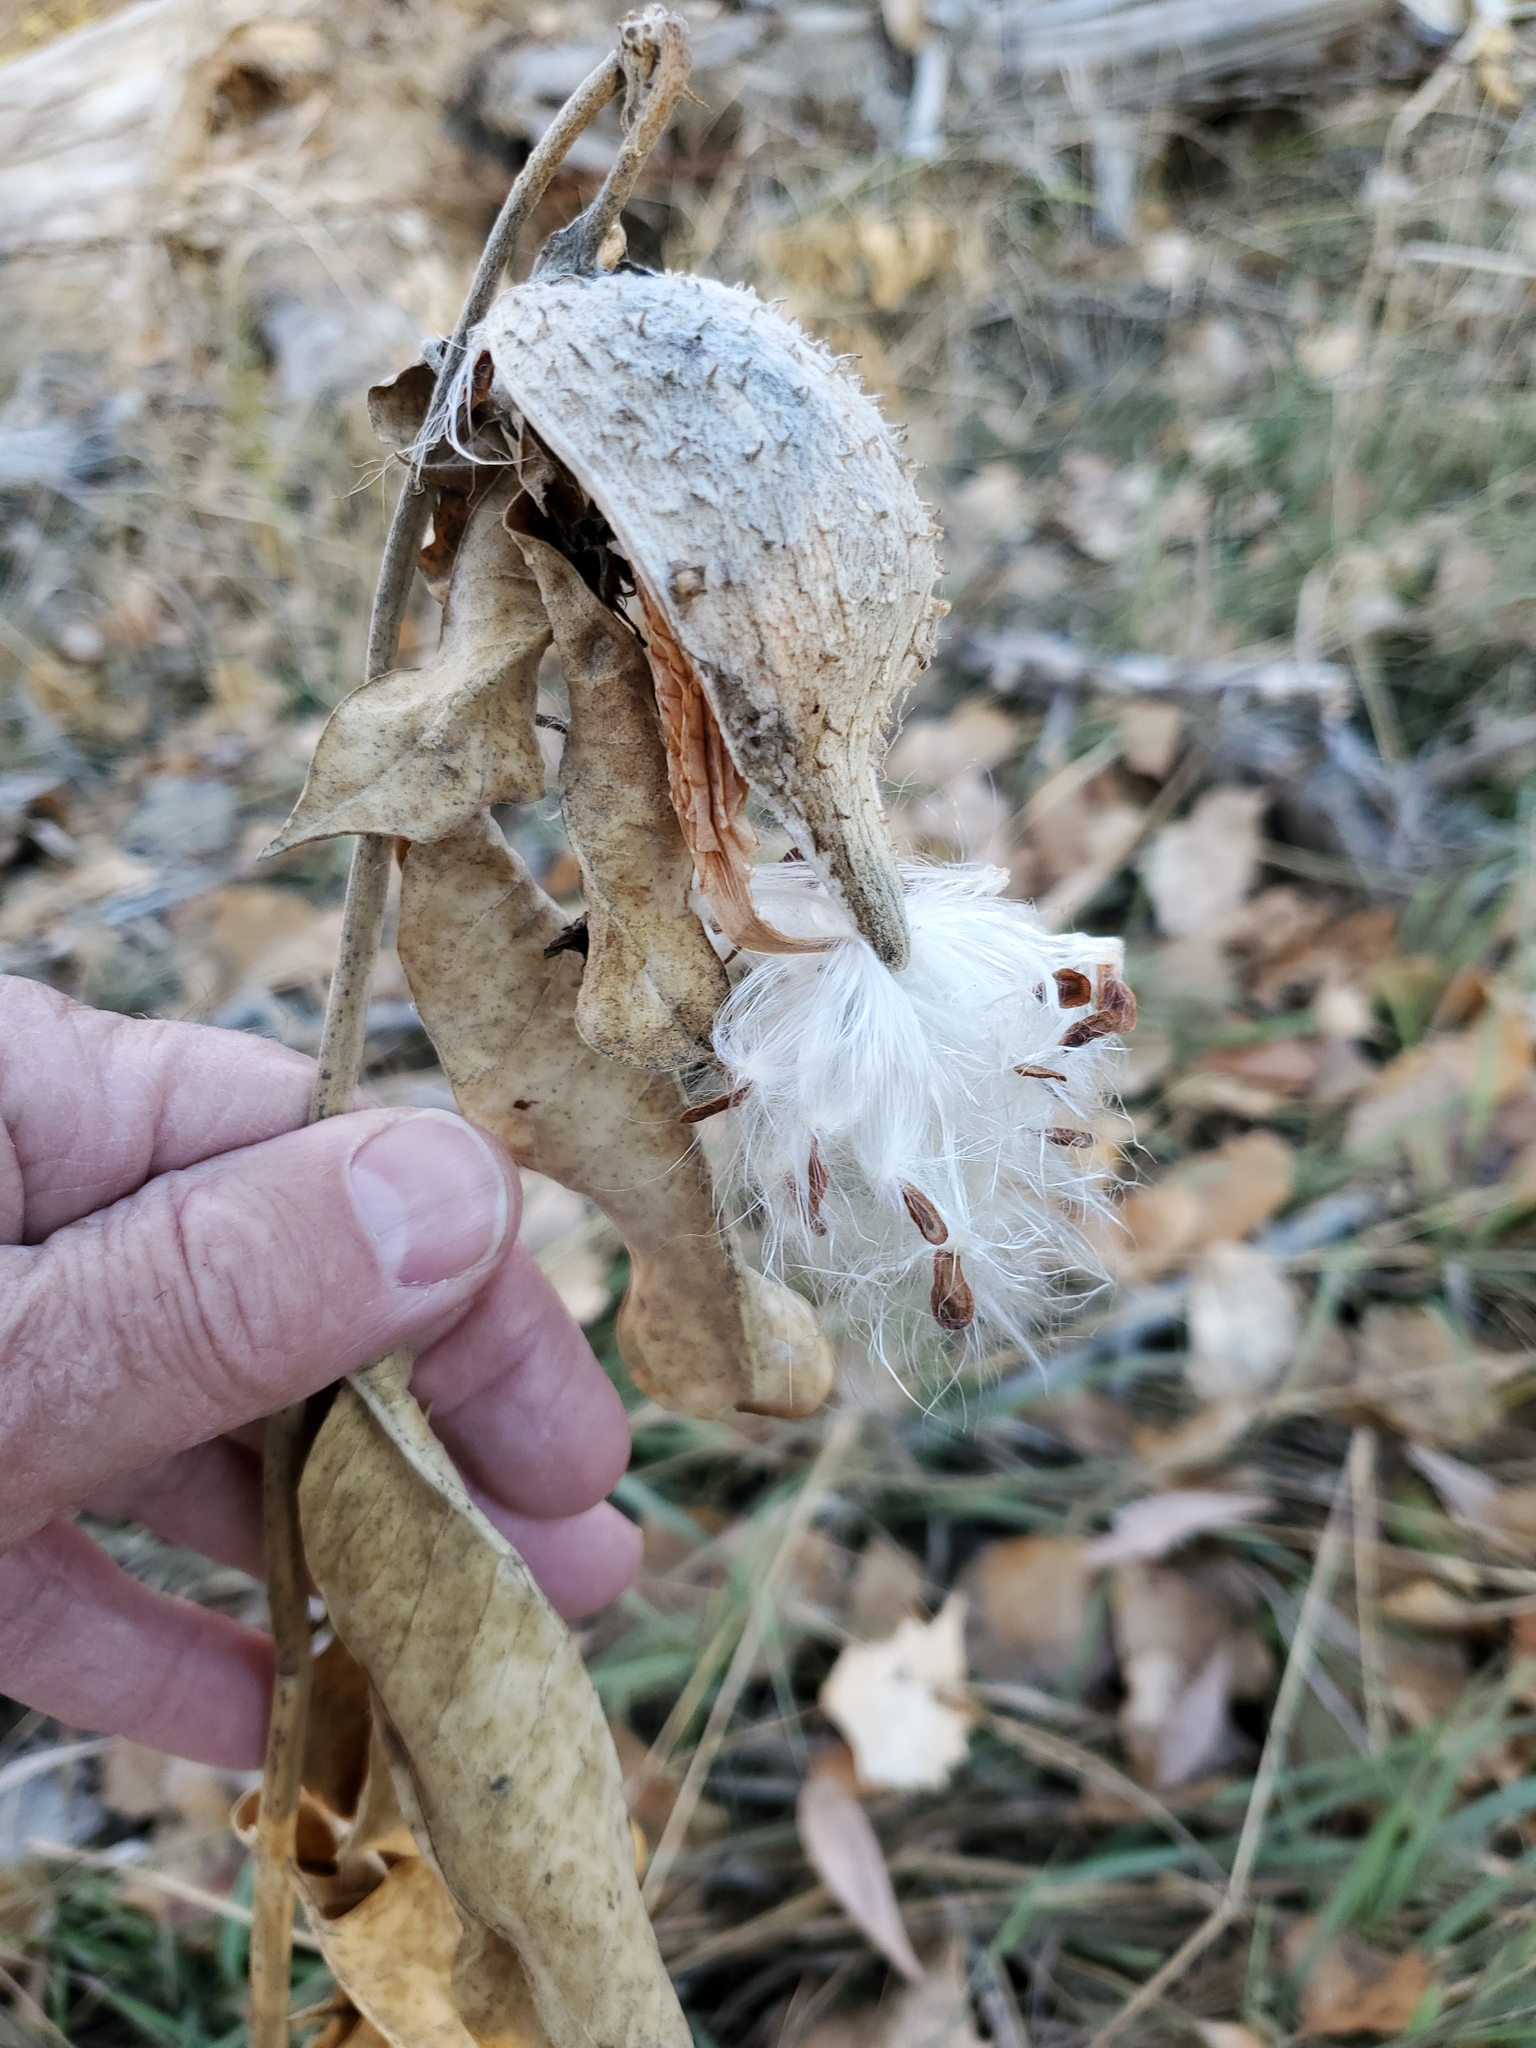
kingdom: Plantae
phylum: Tracheophyta
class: Magnoliopsida
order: Gentianales
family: Apocynaceae
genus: Asclepias
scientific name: Asclepias speciosa
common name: Showy milkweed
